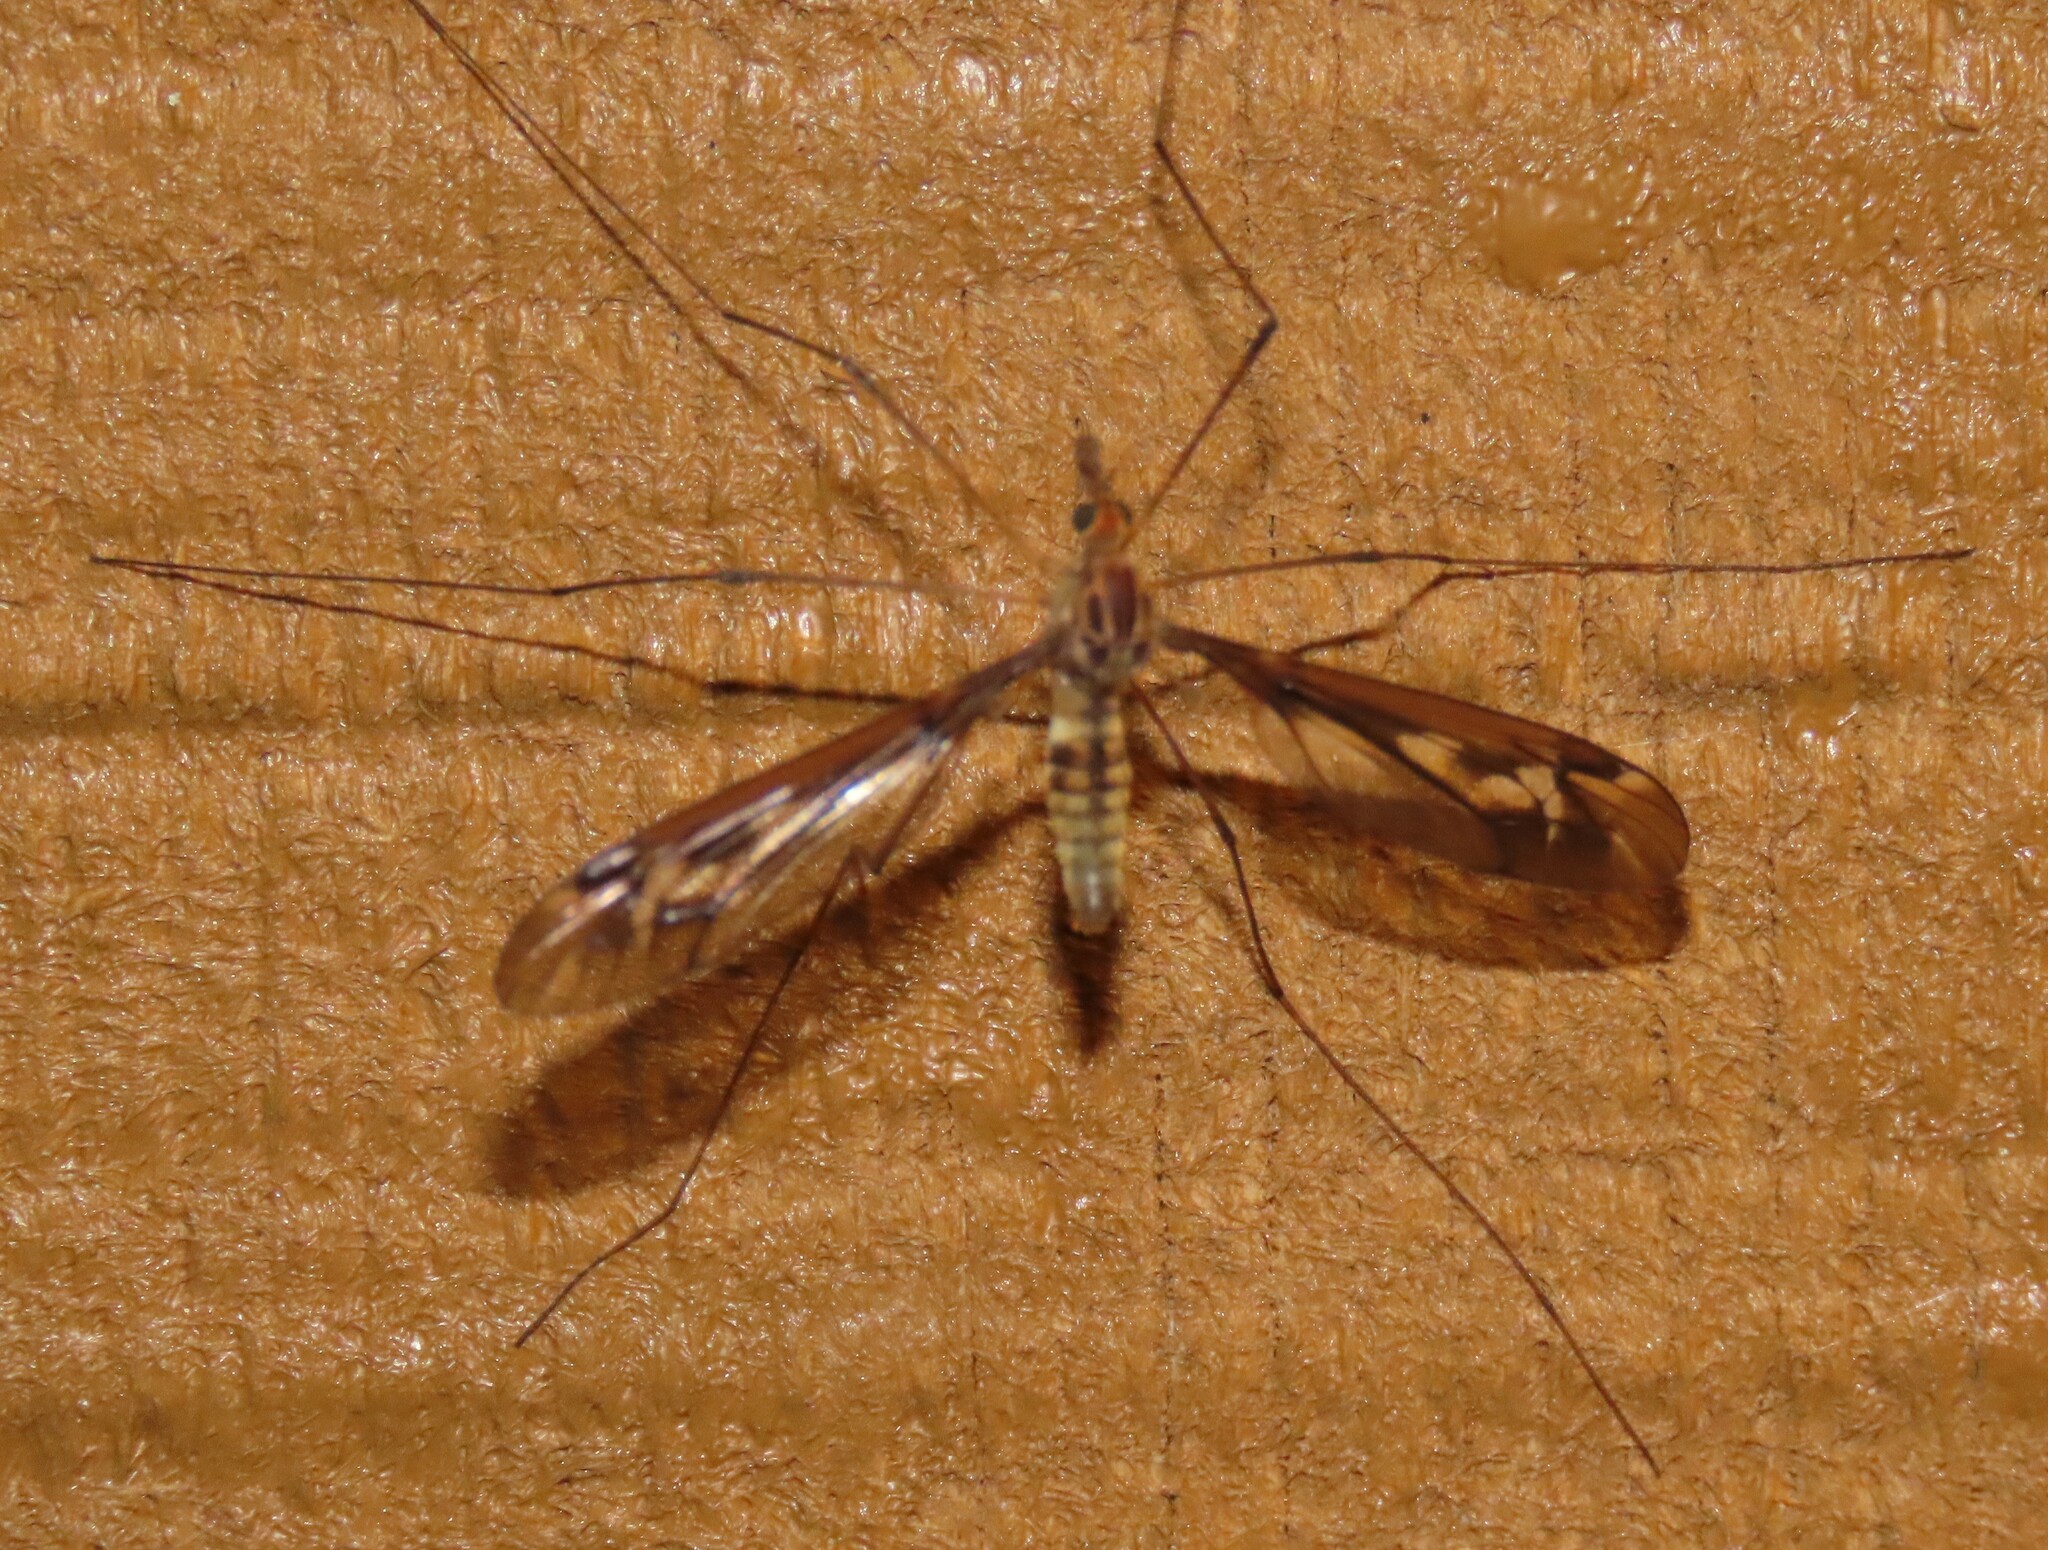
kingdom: Animalia
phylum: Arthropoda
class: Insecta
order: Diptera
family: Tipulidae
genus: Leptotarsus
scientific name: Leptotarsus huttoni
